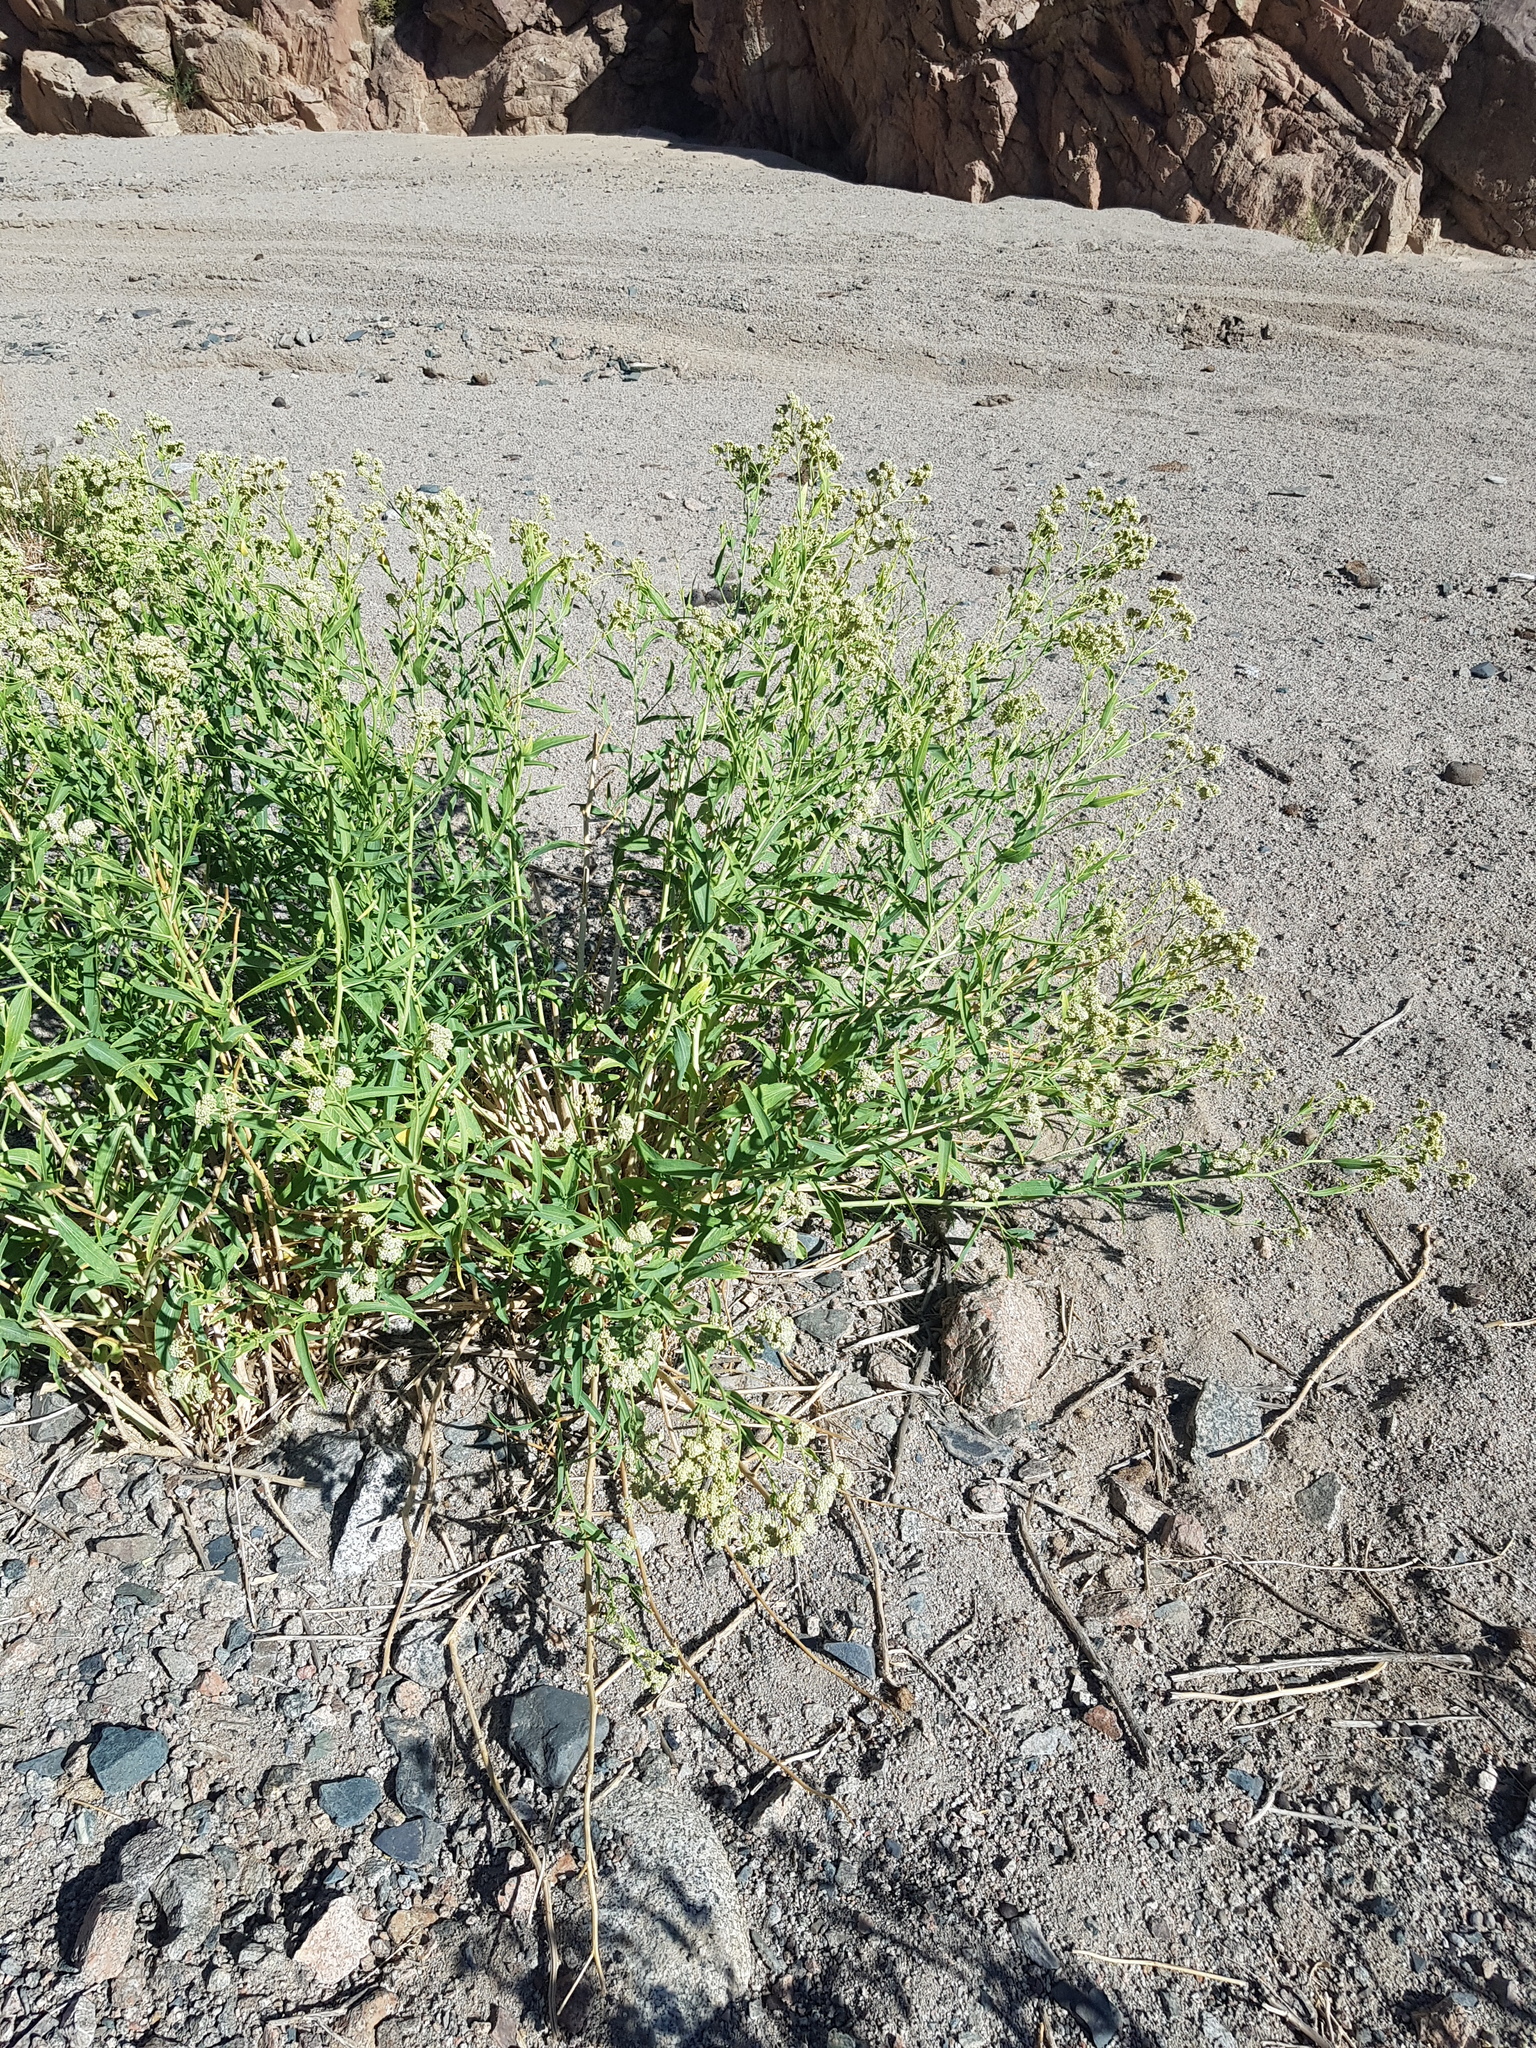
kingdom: Plantae
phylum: Tracheophyta
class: Magnoliopsida
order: Brassicales
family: Brassicaceae
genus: Lepidium
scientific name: Lepidium latifolium
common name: Dittander
